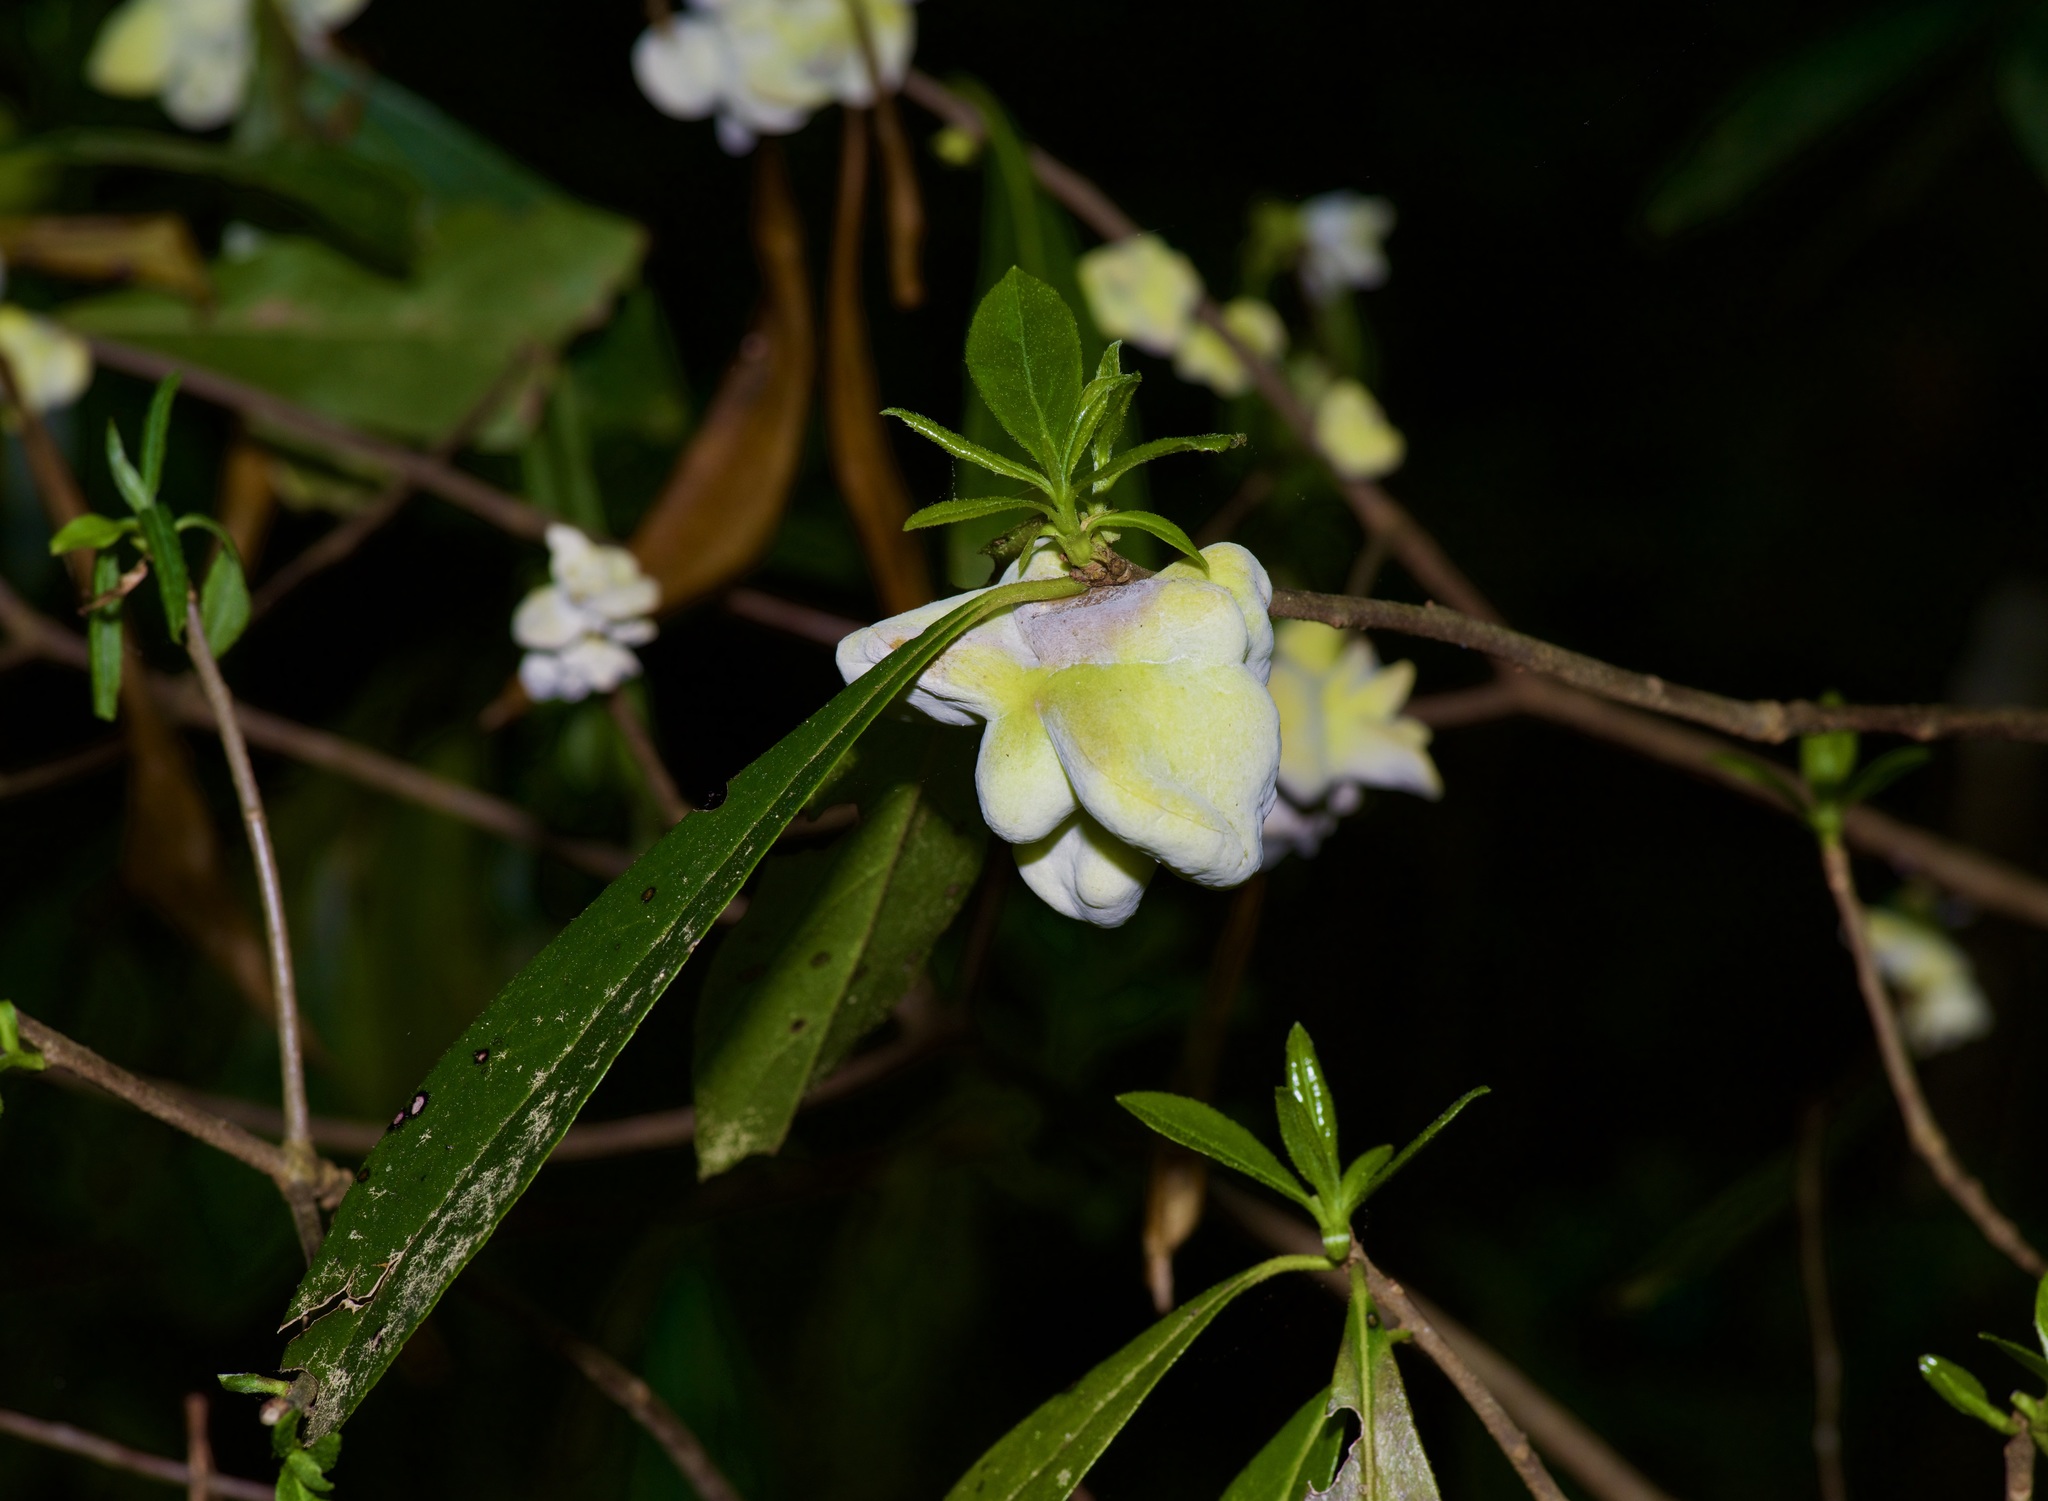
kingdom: Fungi
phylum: Basidiomycota
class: Exobasidiomycetes
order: Exobasidiales
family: Exobasidiaceae
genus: Exobasidium
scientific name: Exobasidium symploci
